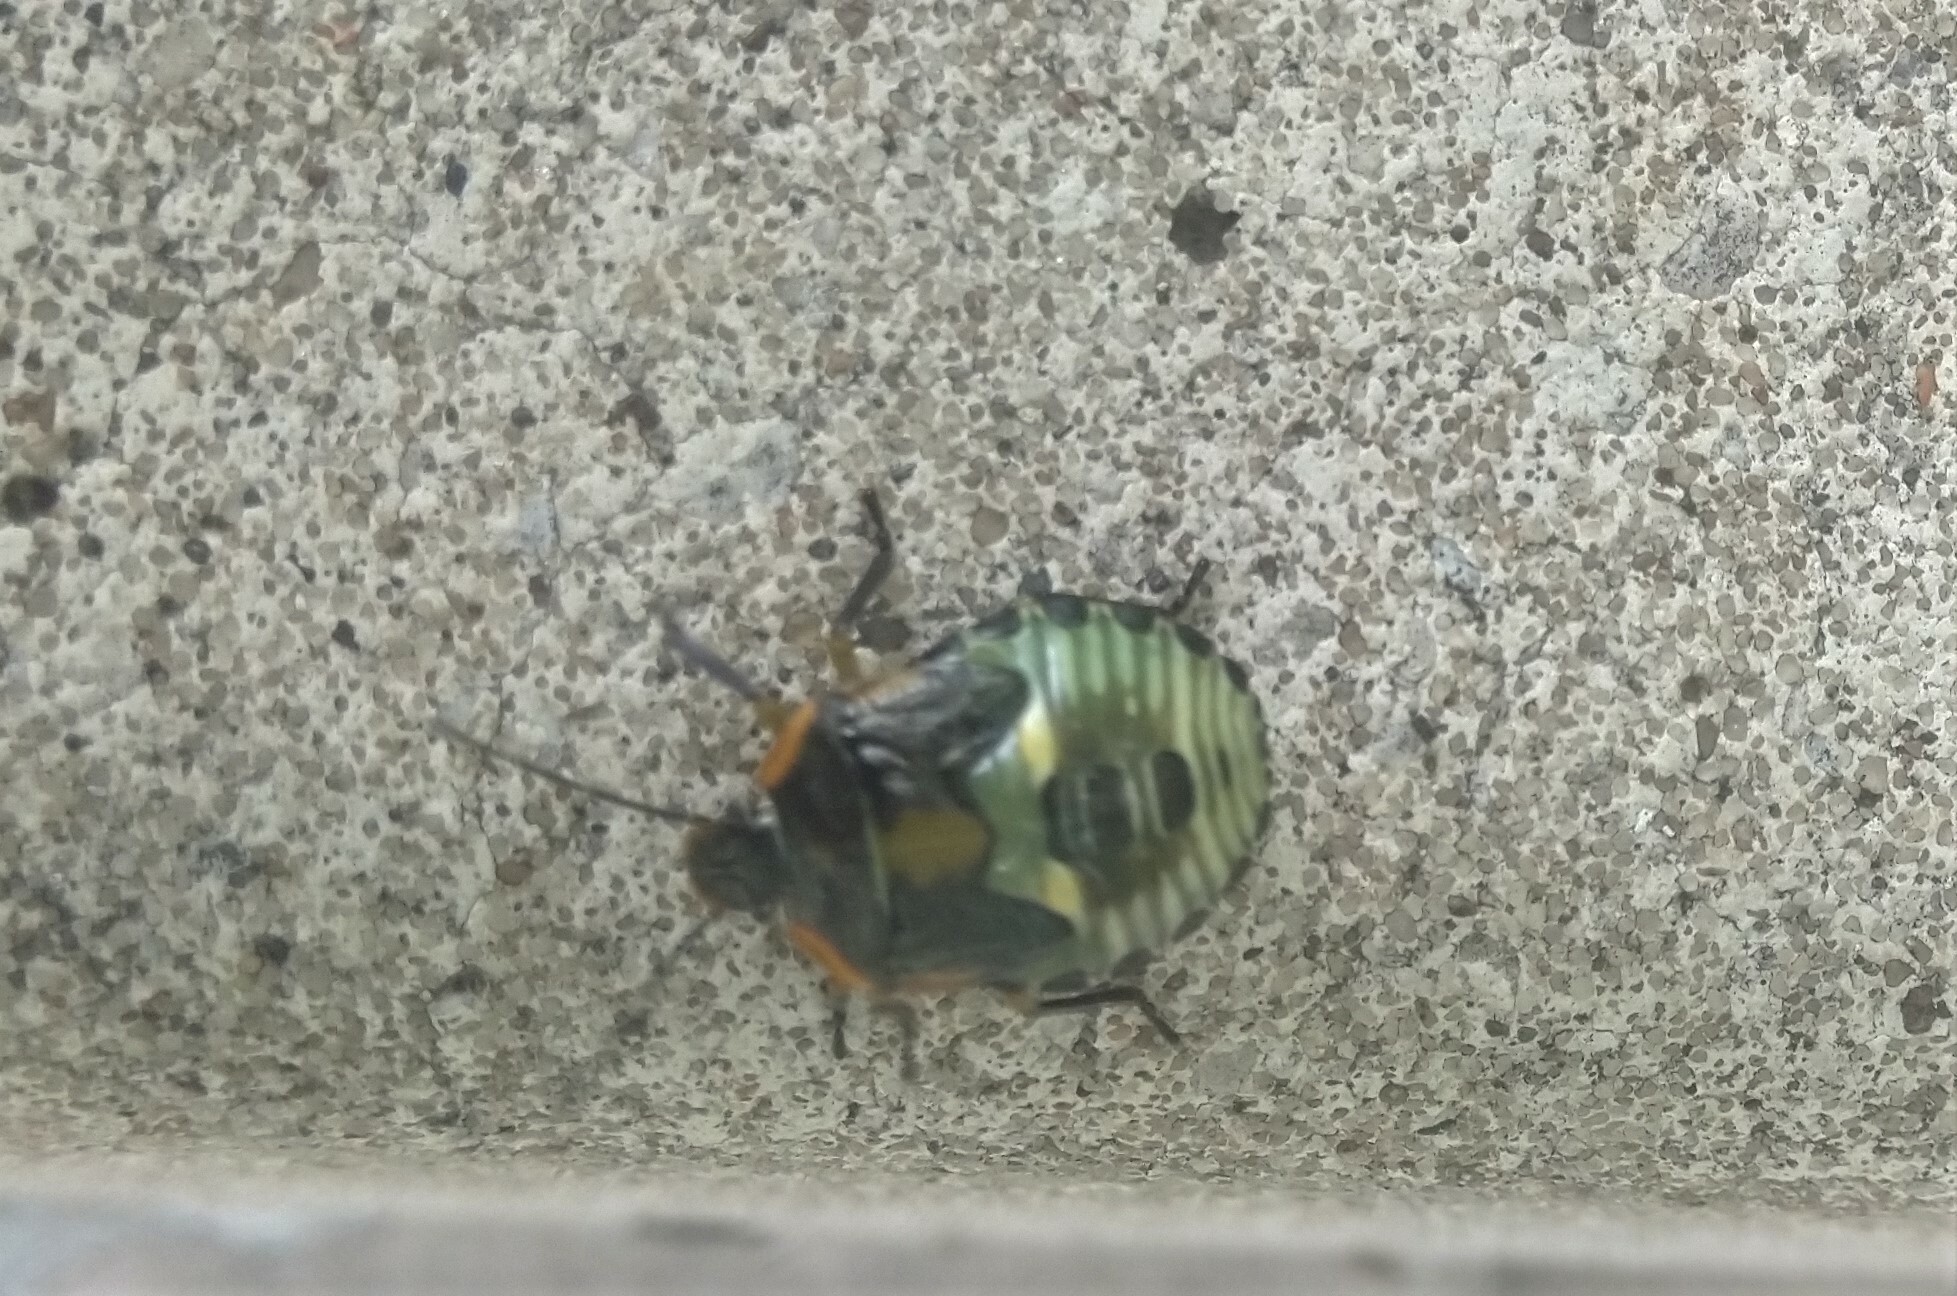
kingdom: Animalia
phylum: Arthropoda
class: Insecta
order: Hemiptera
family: Pentatomidae
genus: Chinavia
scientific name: Chinavia hilaris
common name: Green stink bug
